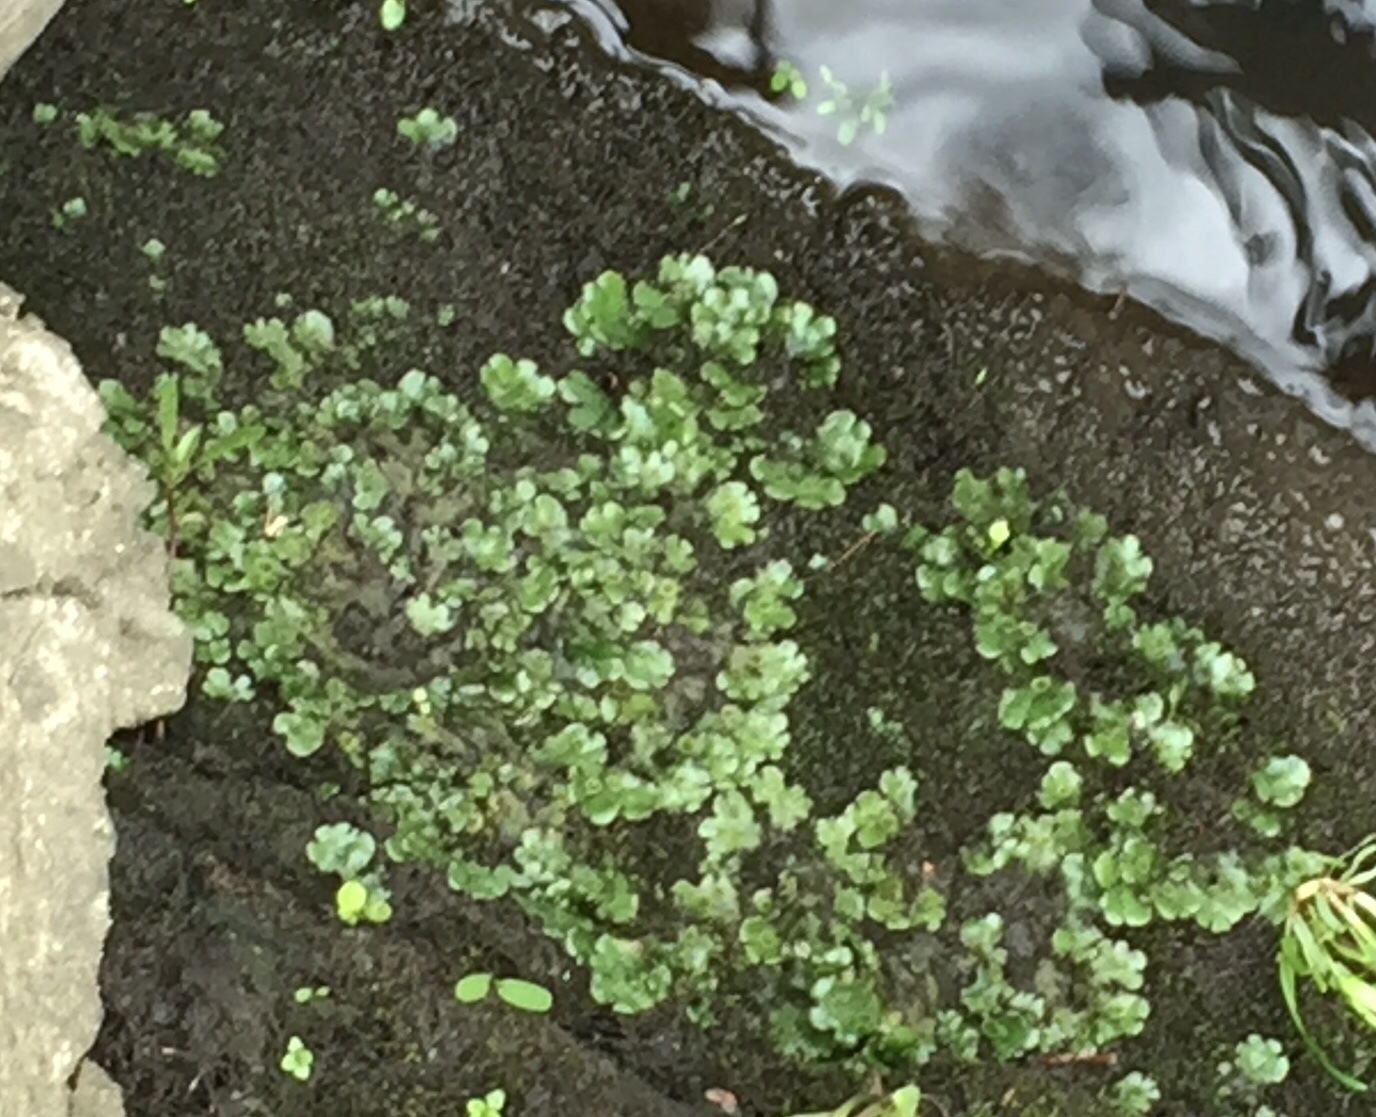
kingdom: Plantae
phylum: Marchantiophyta
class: Marchantiopsida
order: Marchantiales
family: Marchantiaceae
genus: Marchantia
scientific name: Marchantia polymorpha
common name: Common liverwort
